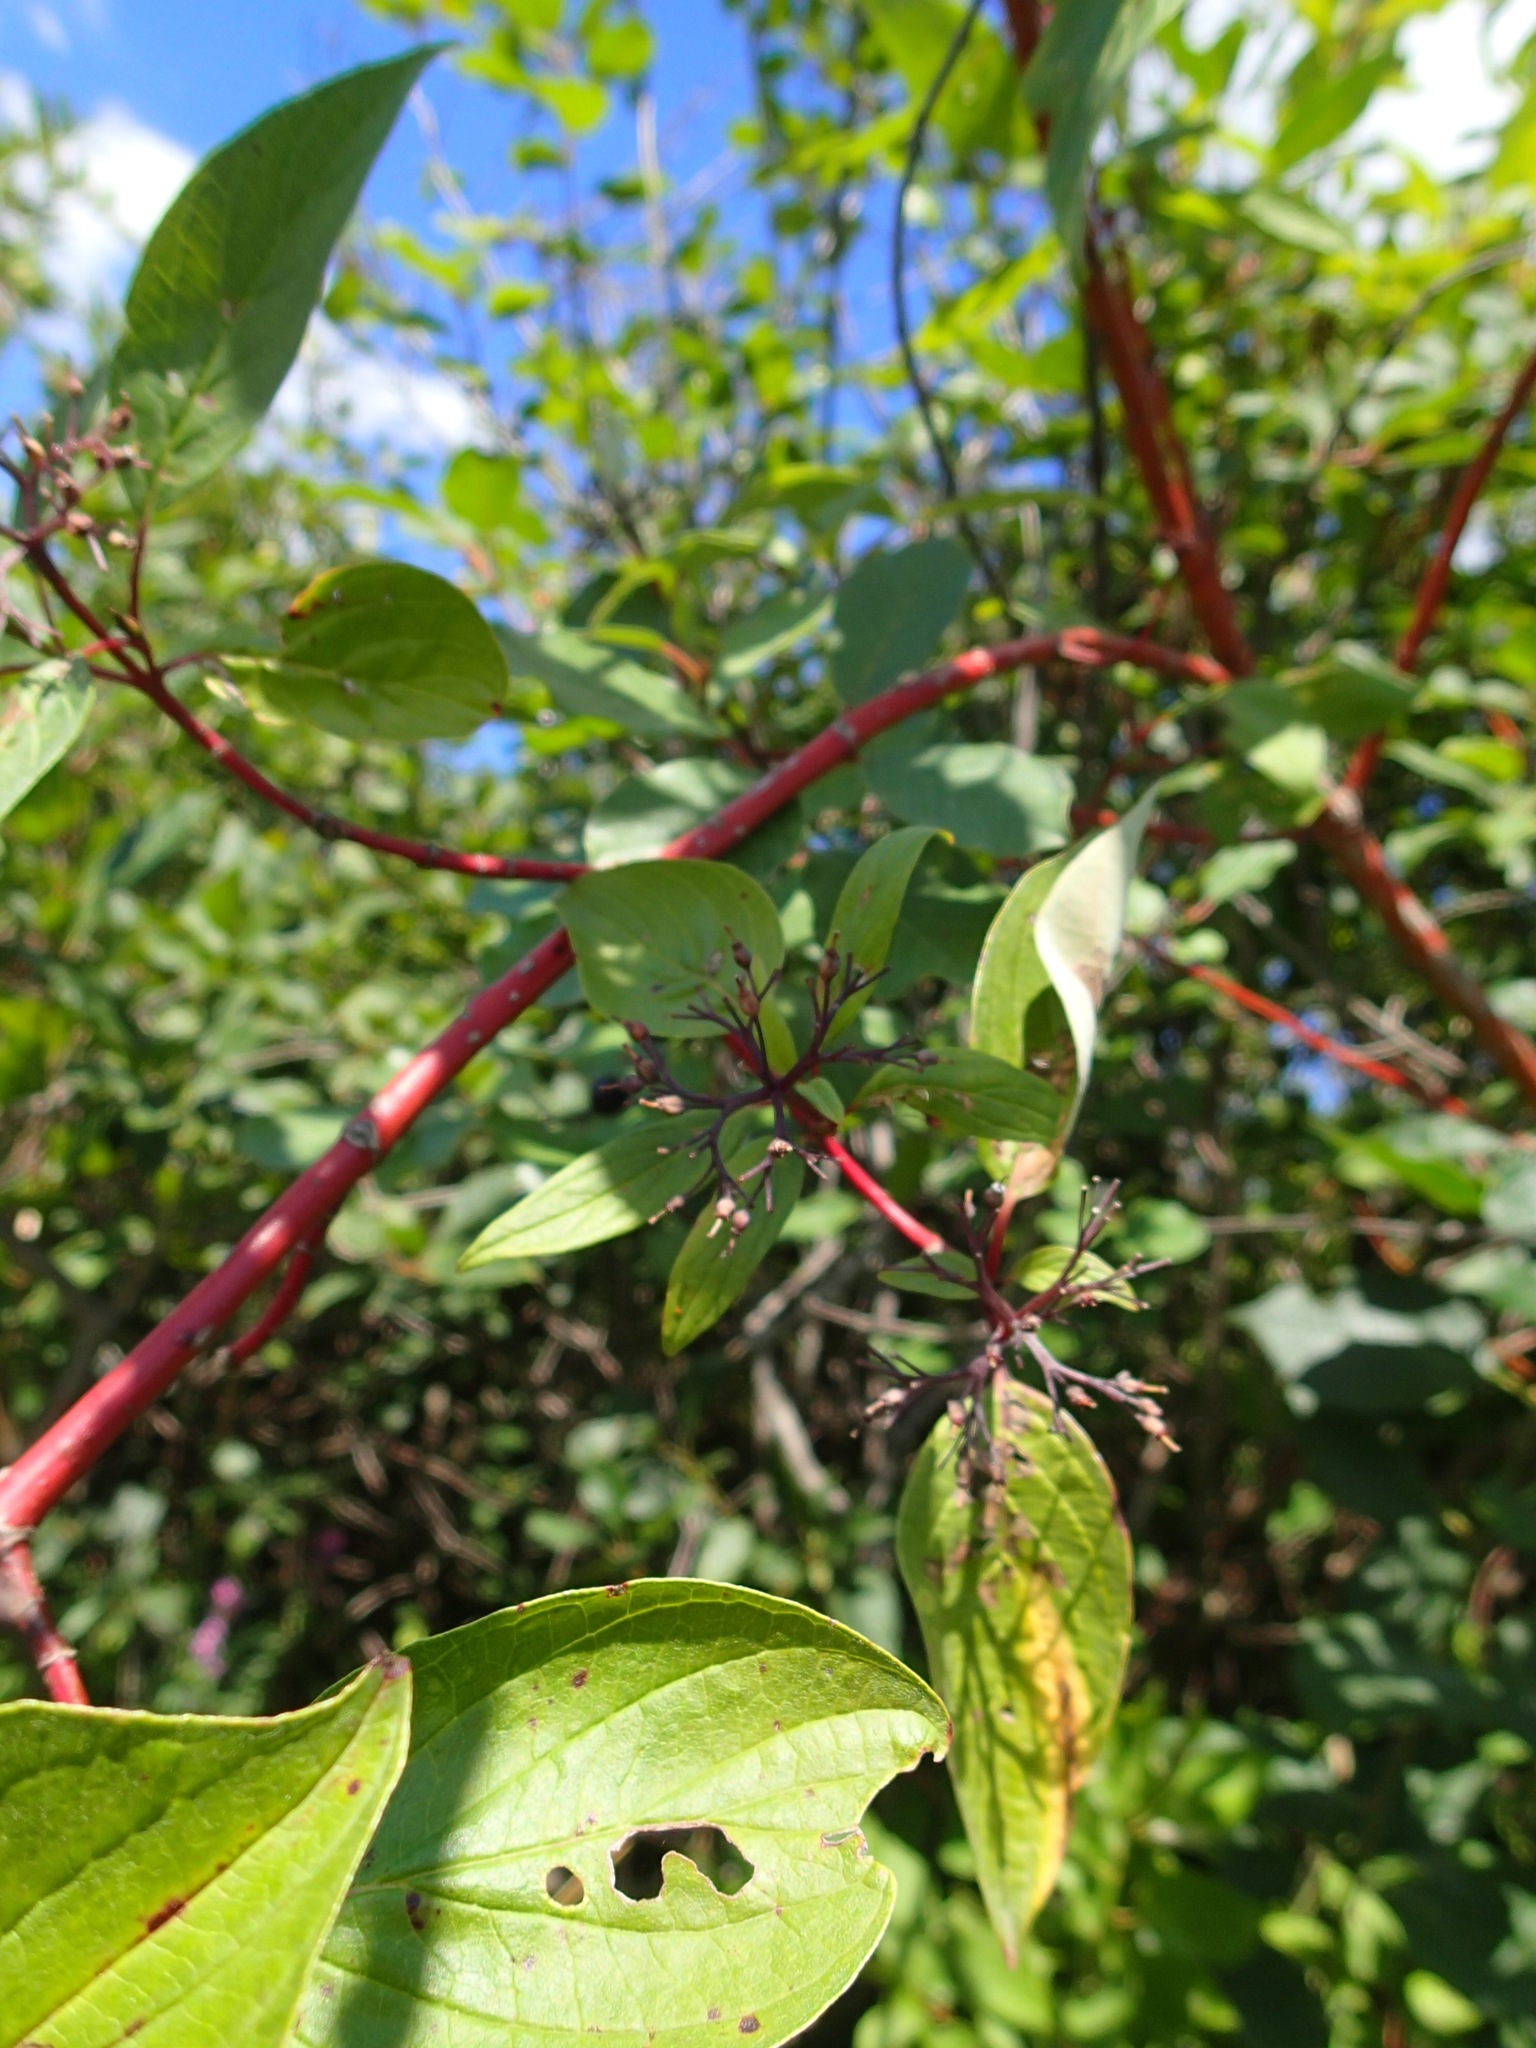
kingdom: Plantae
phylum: Tracheophyta
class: Magnoliopsida
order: Cornales
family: Cornaceae
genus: Cornus
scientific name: Cornus sericea
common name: Red-osier dogwood
